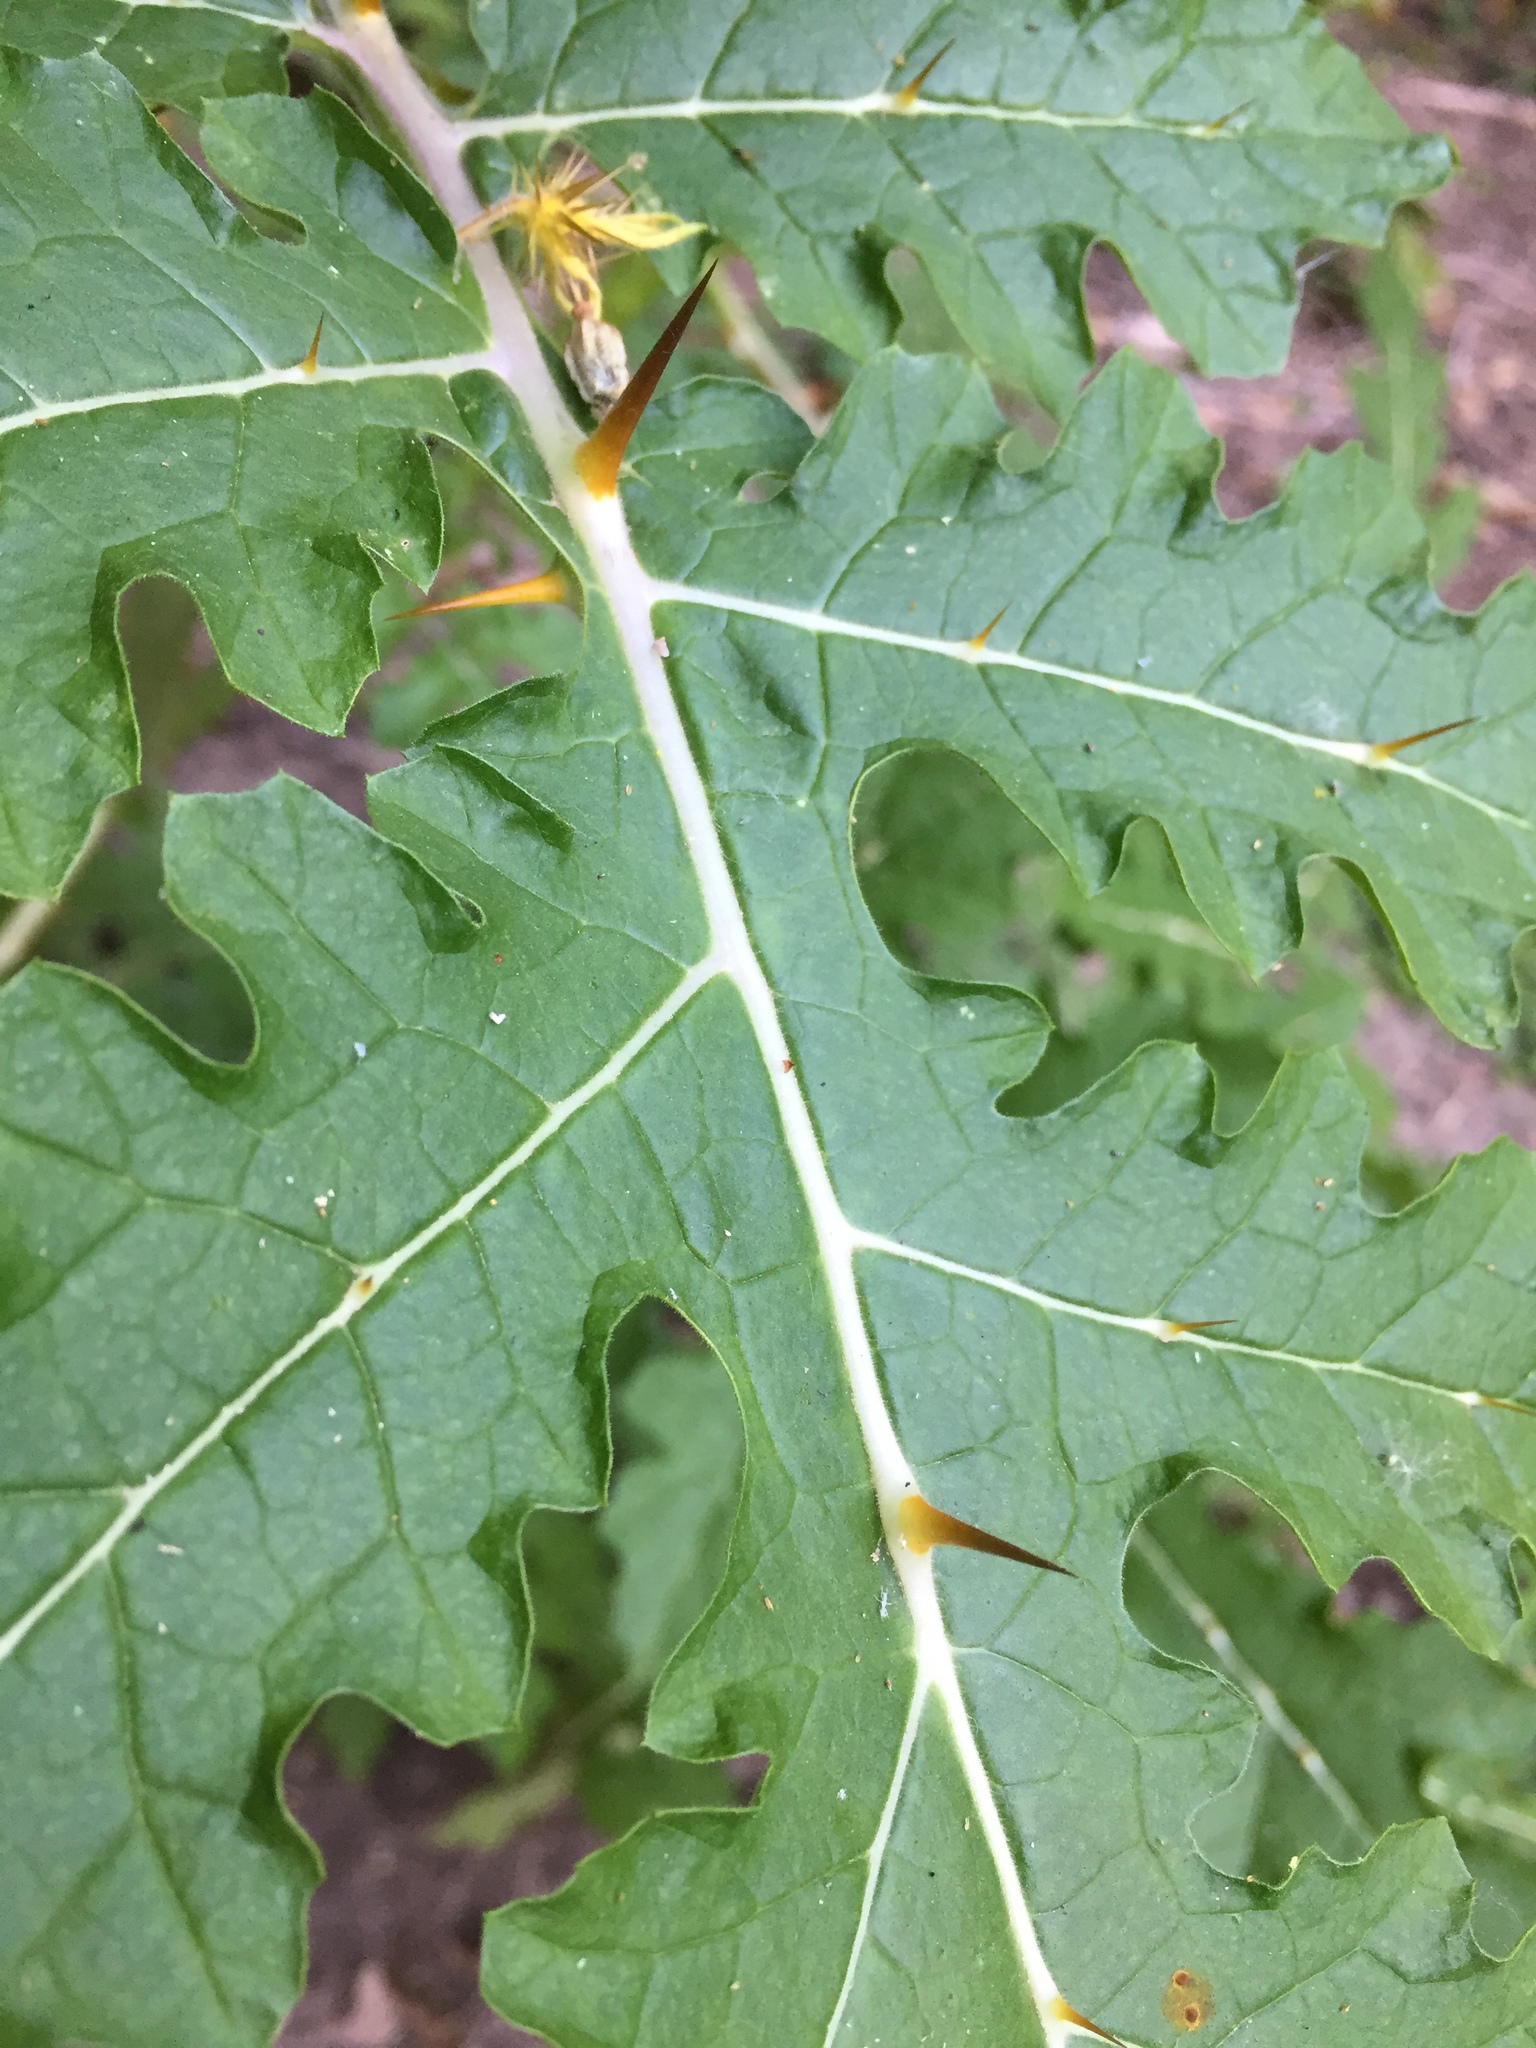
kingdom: Plantae
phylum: Tracheophyta
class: Magnoliopsida
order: Solanales
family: Solanaceae
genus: Solanum
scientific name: Solanum sisymbriifolium
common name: Red buffalo-bur
